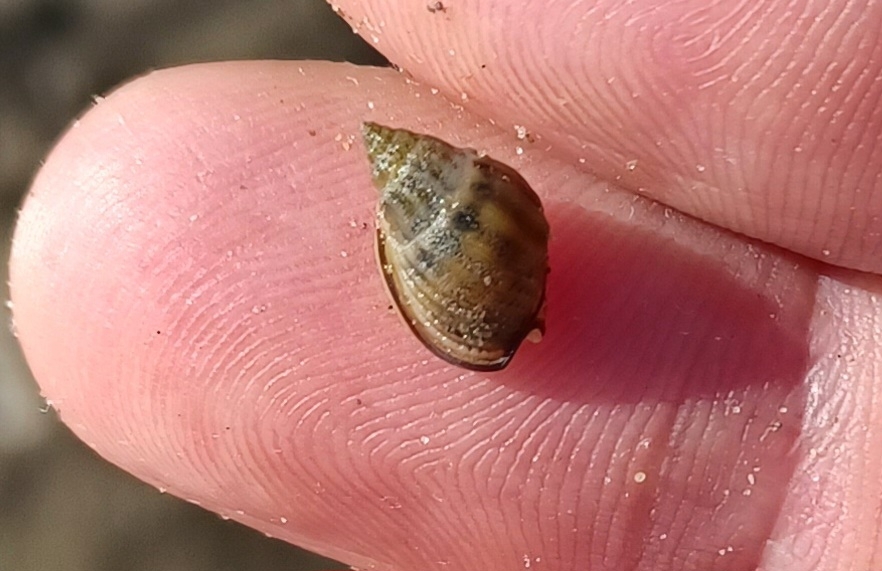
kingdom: Animalia
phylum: Mollusca
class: Gastropoda
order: Neogastropoda
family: Nassariidae
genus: Nassarius
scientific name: Nassarius jonasii
